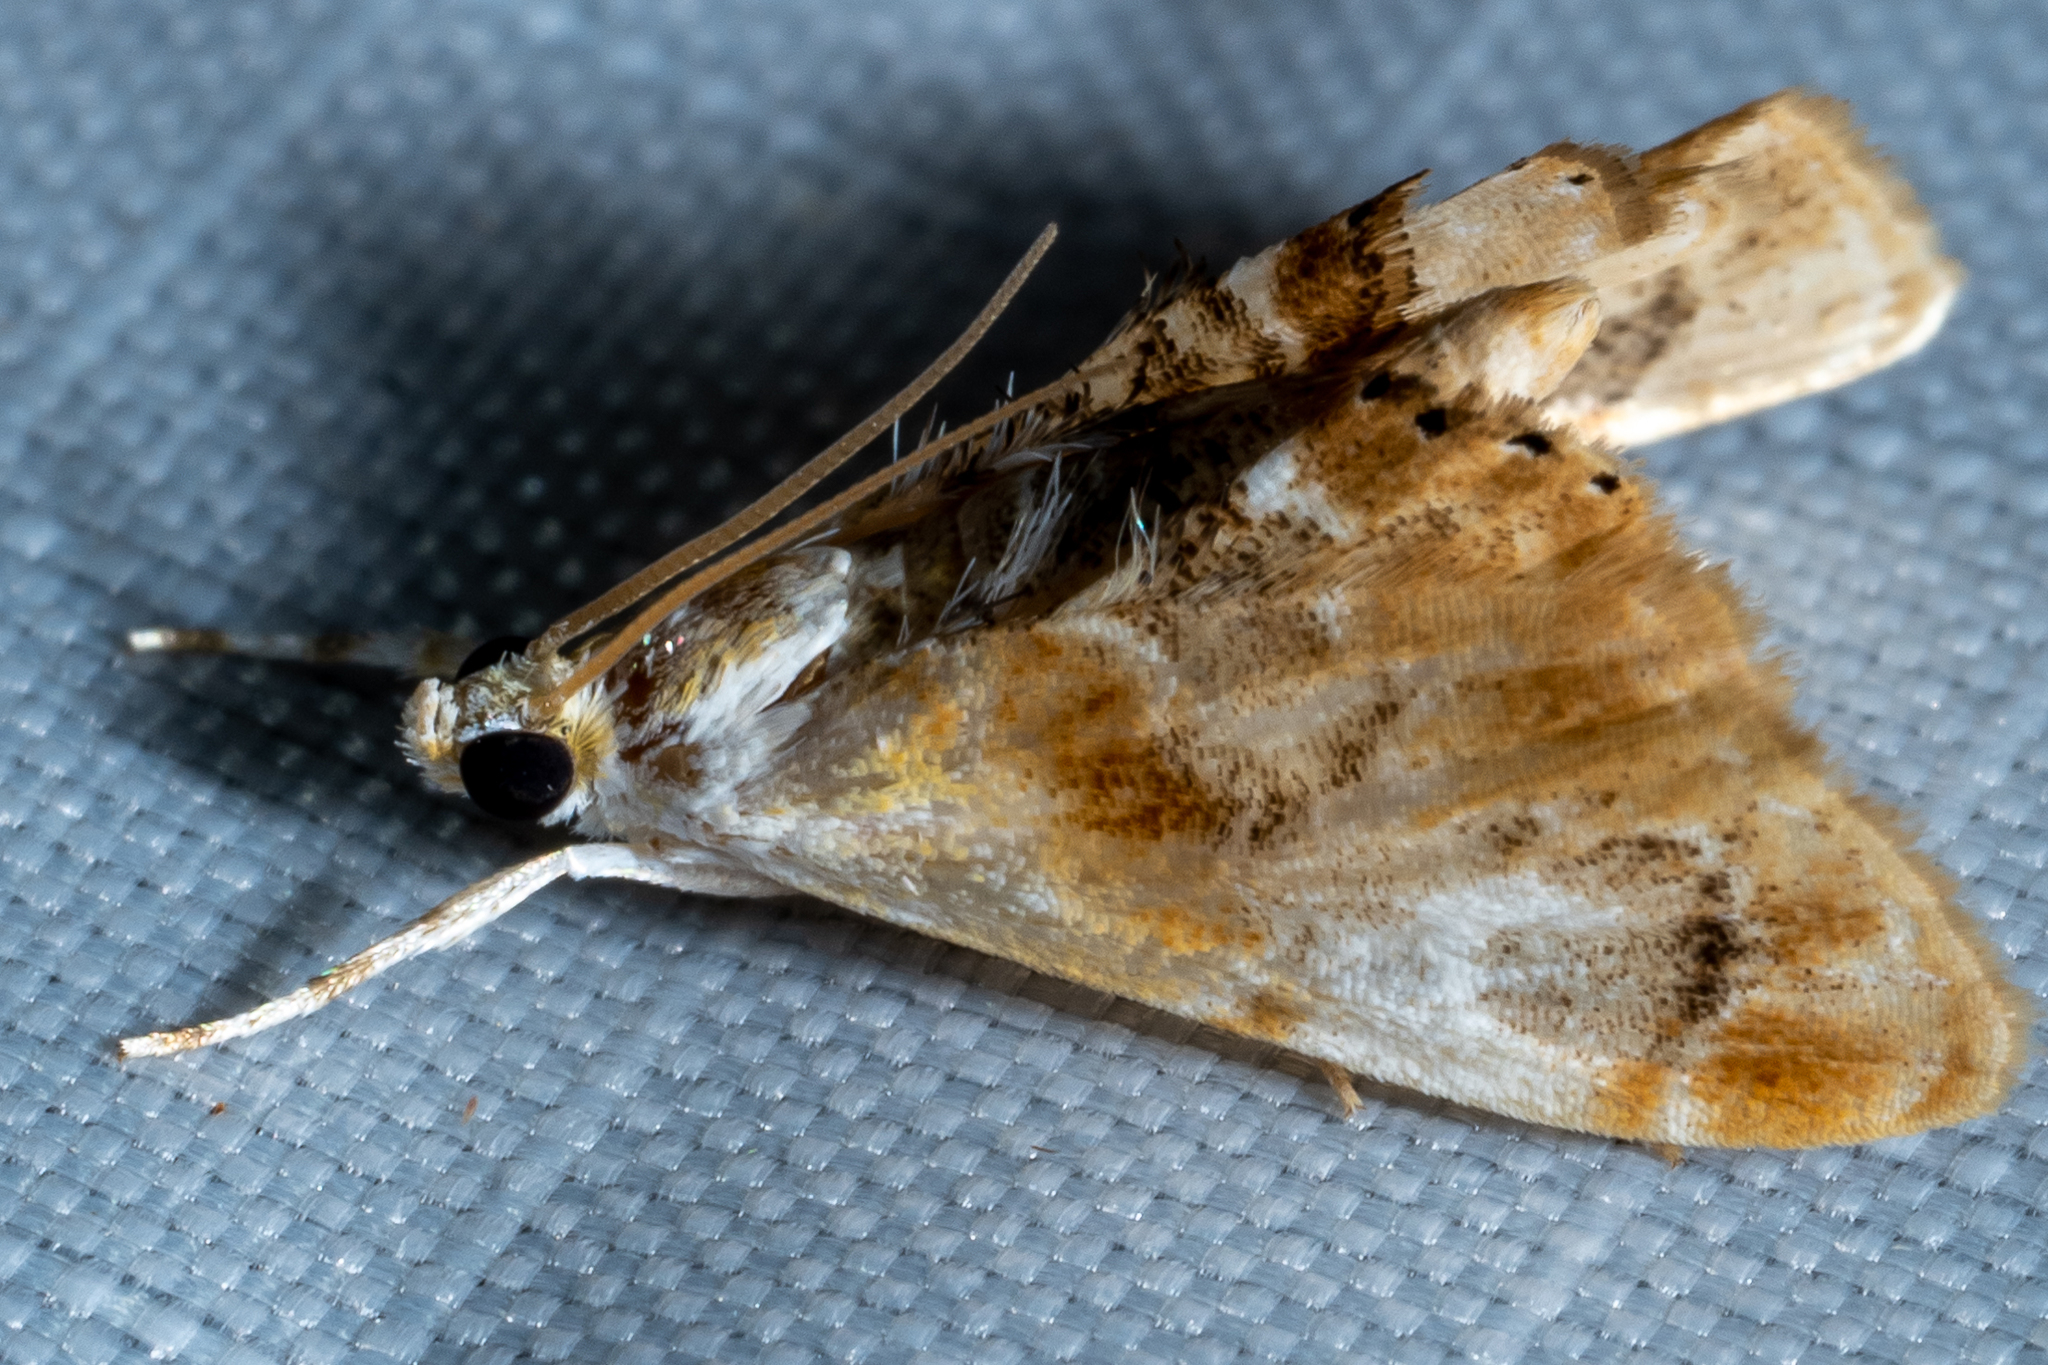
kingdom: Animalia
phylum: Arthropoda
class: Insecta
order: Lepidoptera
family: Crambidae
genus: Dicymolomia
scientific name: Dicymolomia julianalis
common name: Julia's dicymolomia moth
